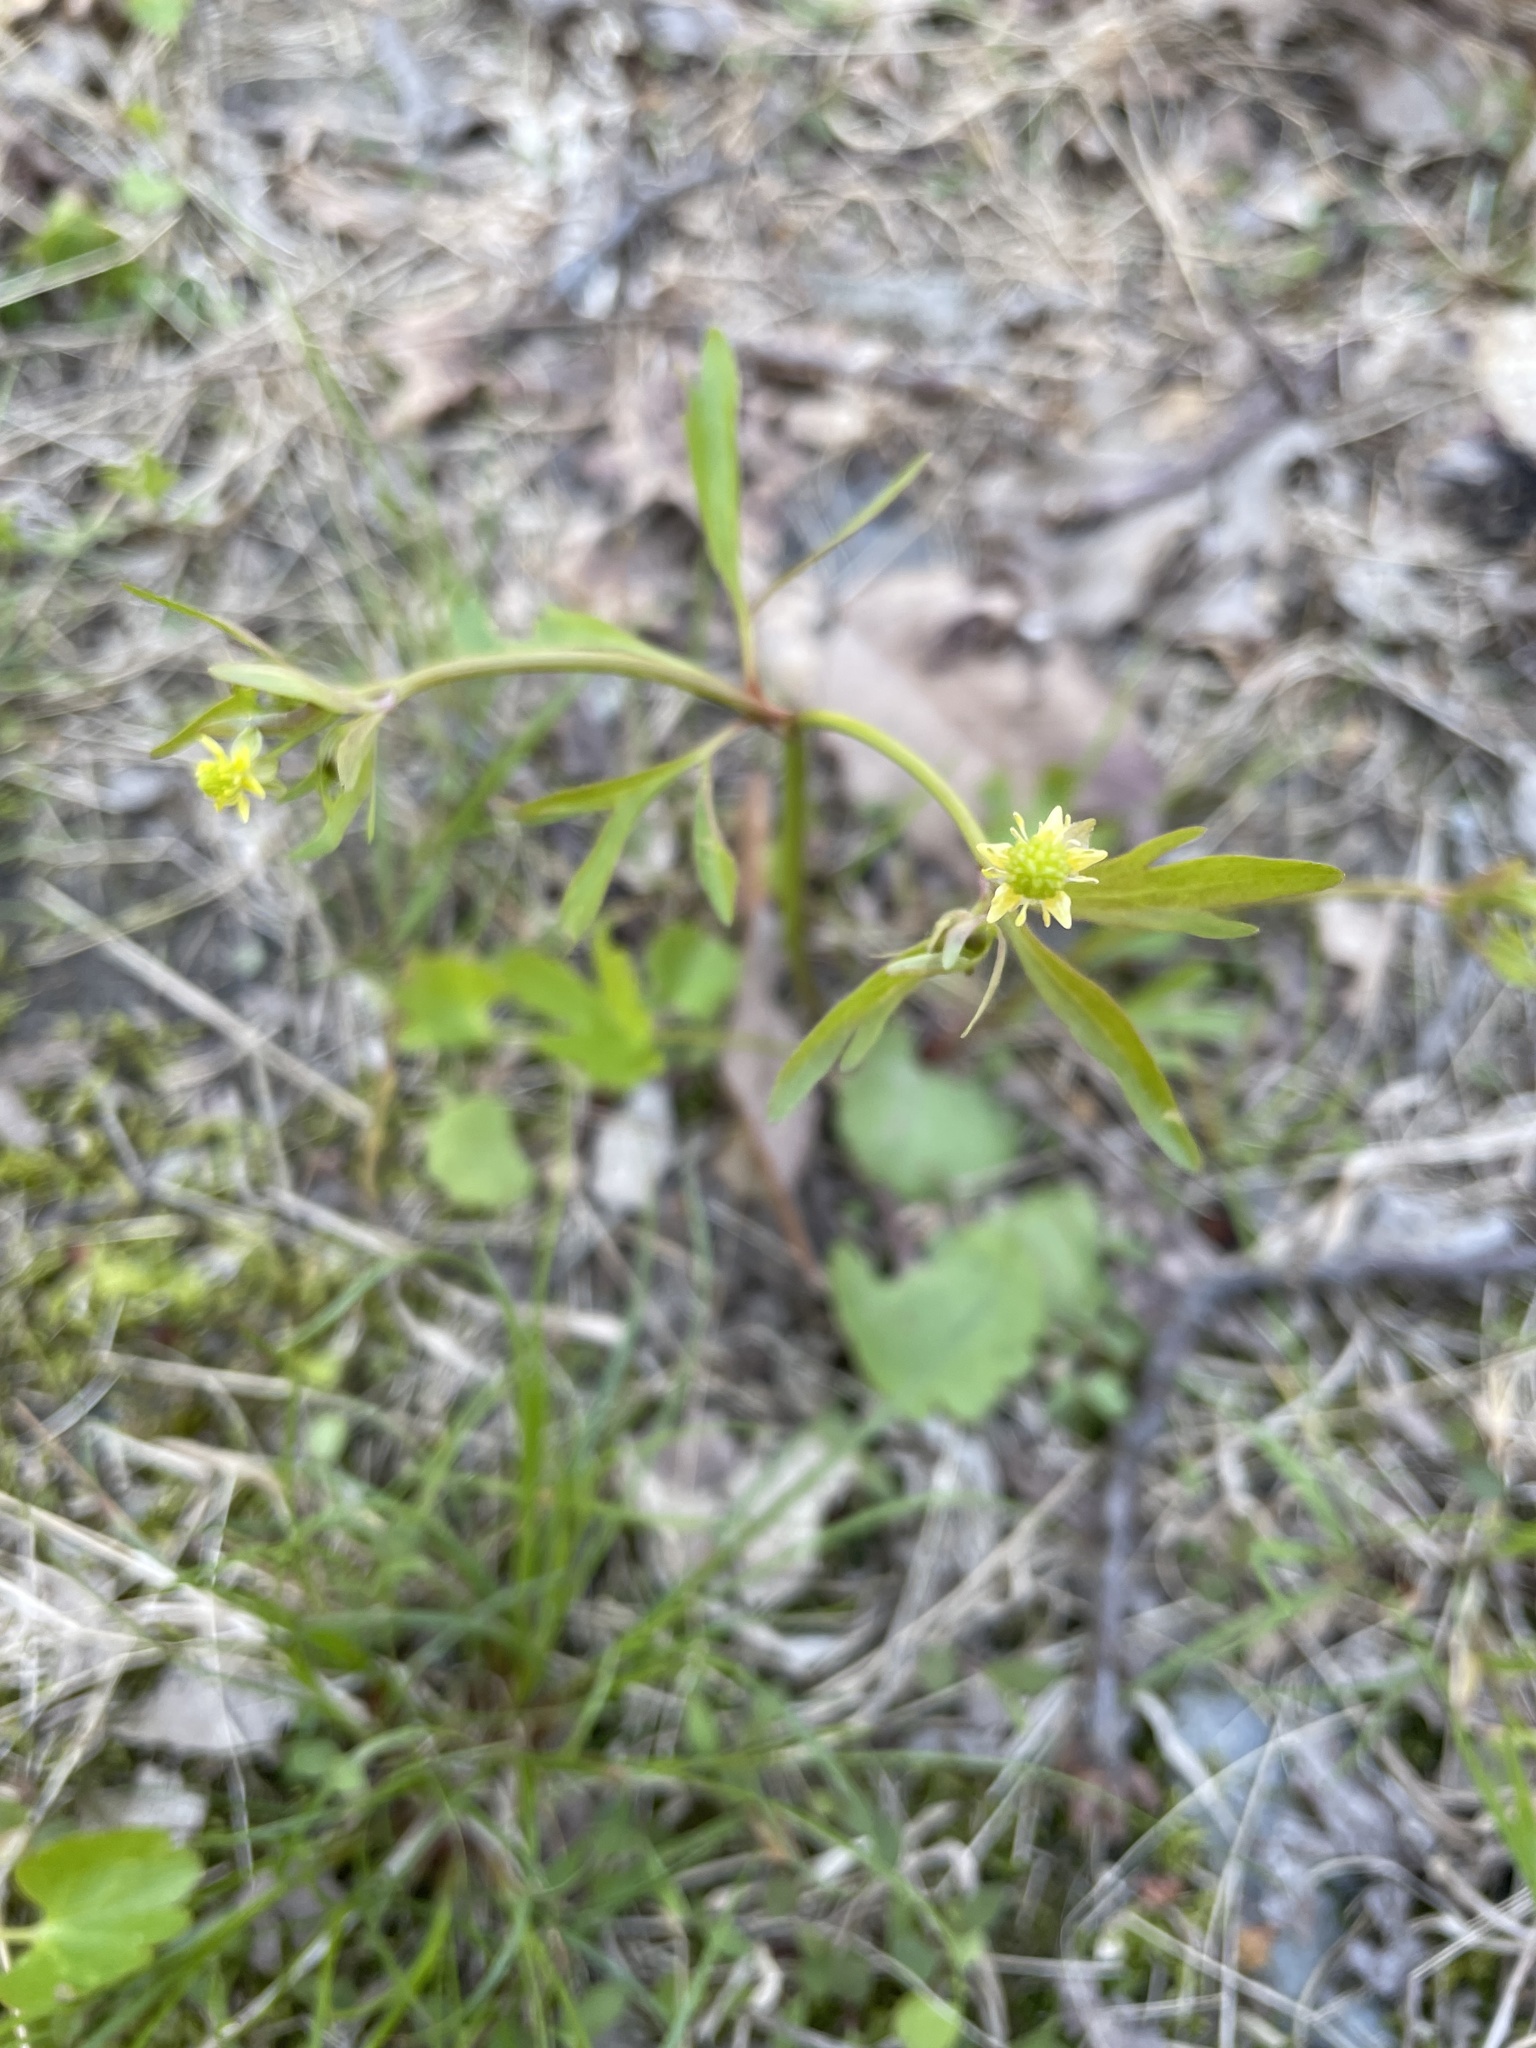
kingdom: Plantae
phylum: Tracheophyta
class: Magnoliopsida
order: Ranunculales
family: Ranunculaceae
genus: Ranunculus
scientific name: Ranunculus abortivus
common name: Early wood buttercup
